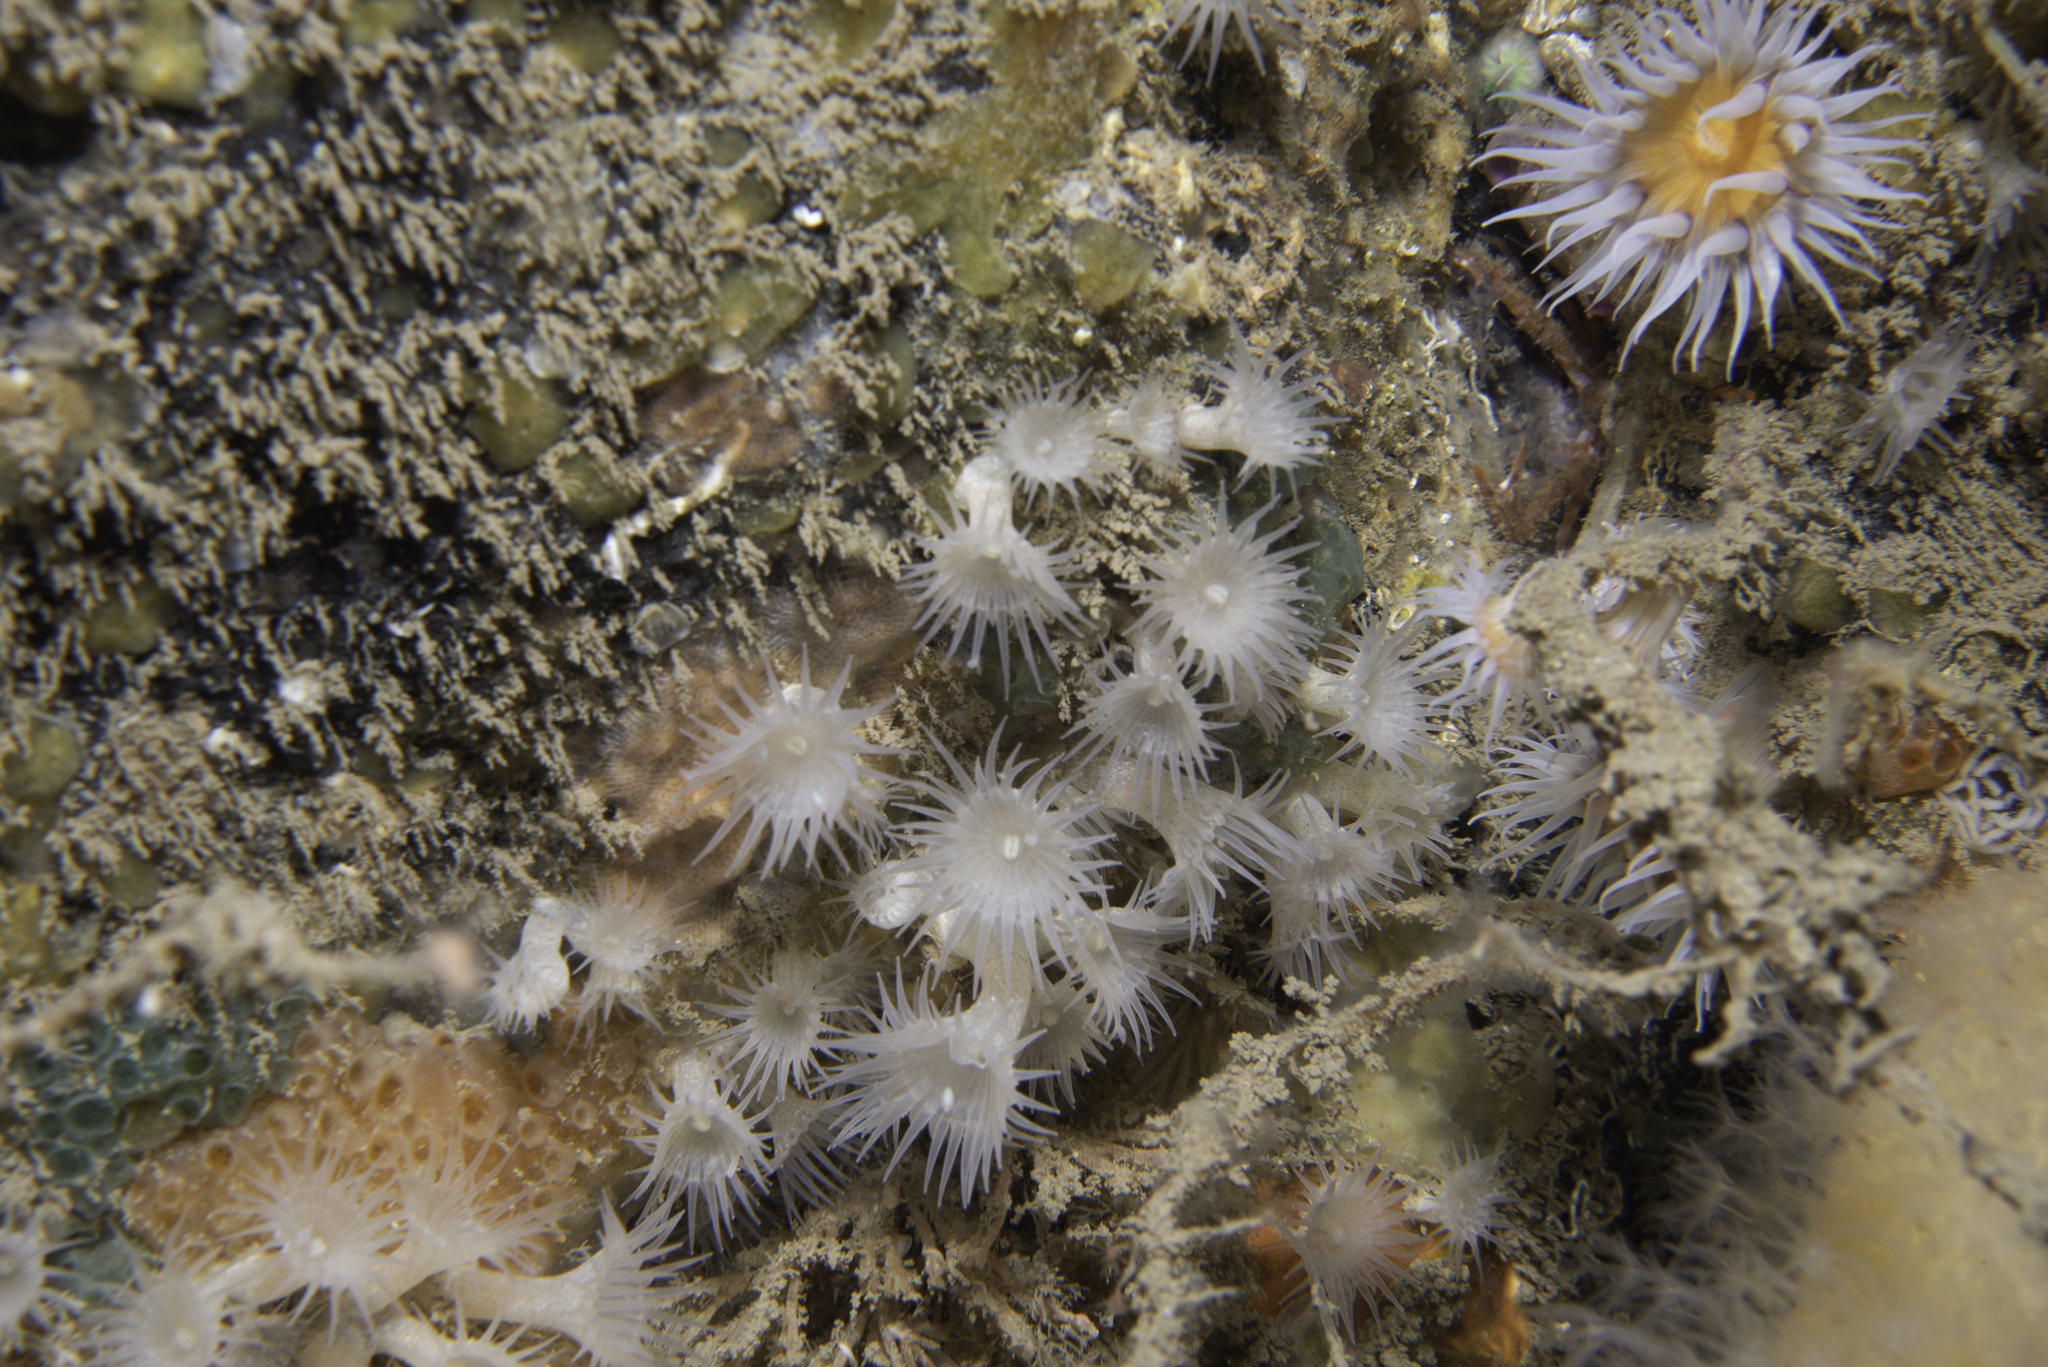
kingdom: Animalia
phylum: Cnidaria
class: Anthozoa
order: Zoantharia
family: Parazoanthidae
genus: Parazoanthus
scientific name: Parazoanthus anguicomus
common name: White cluster anemone
